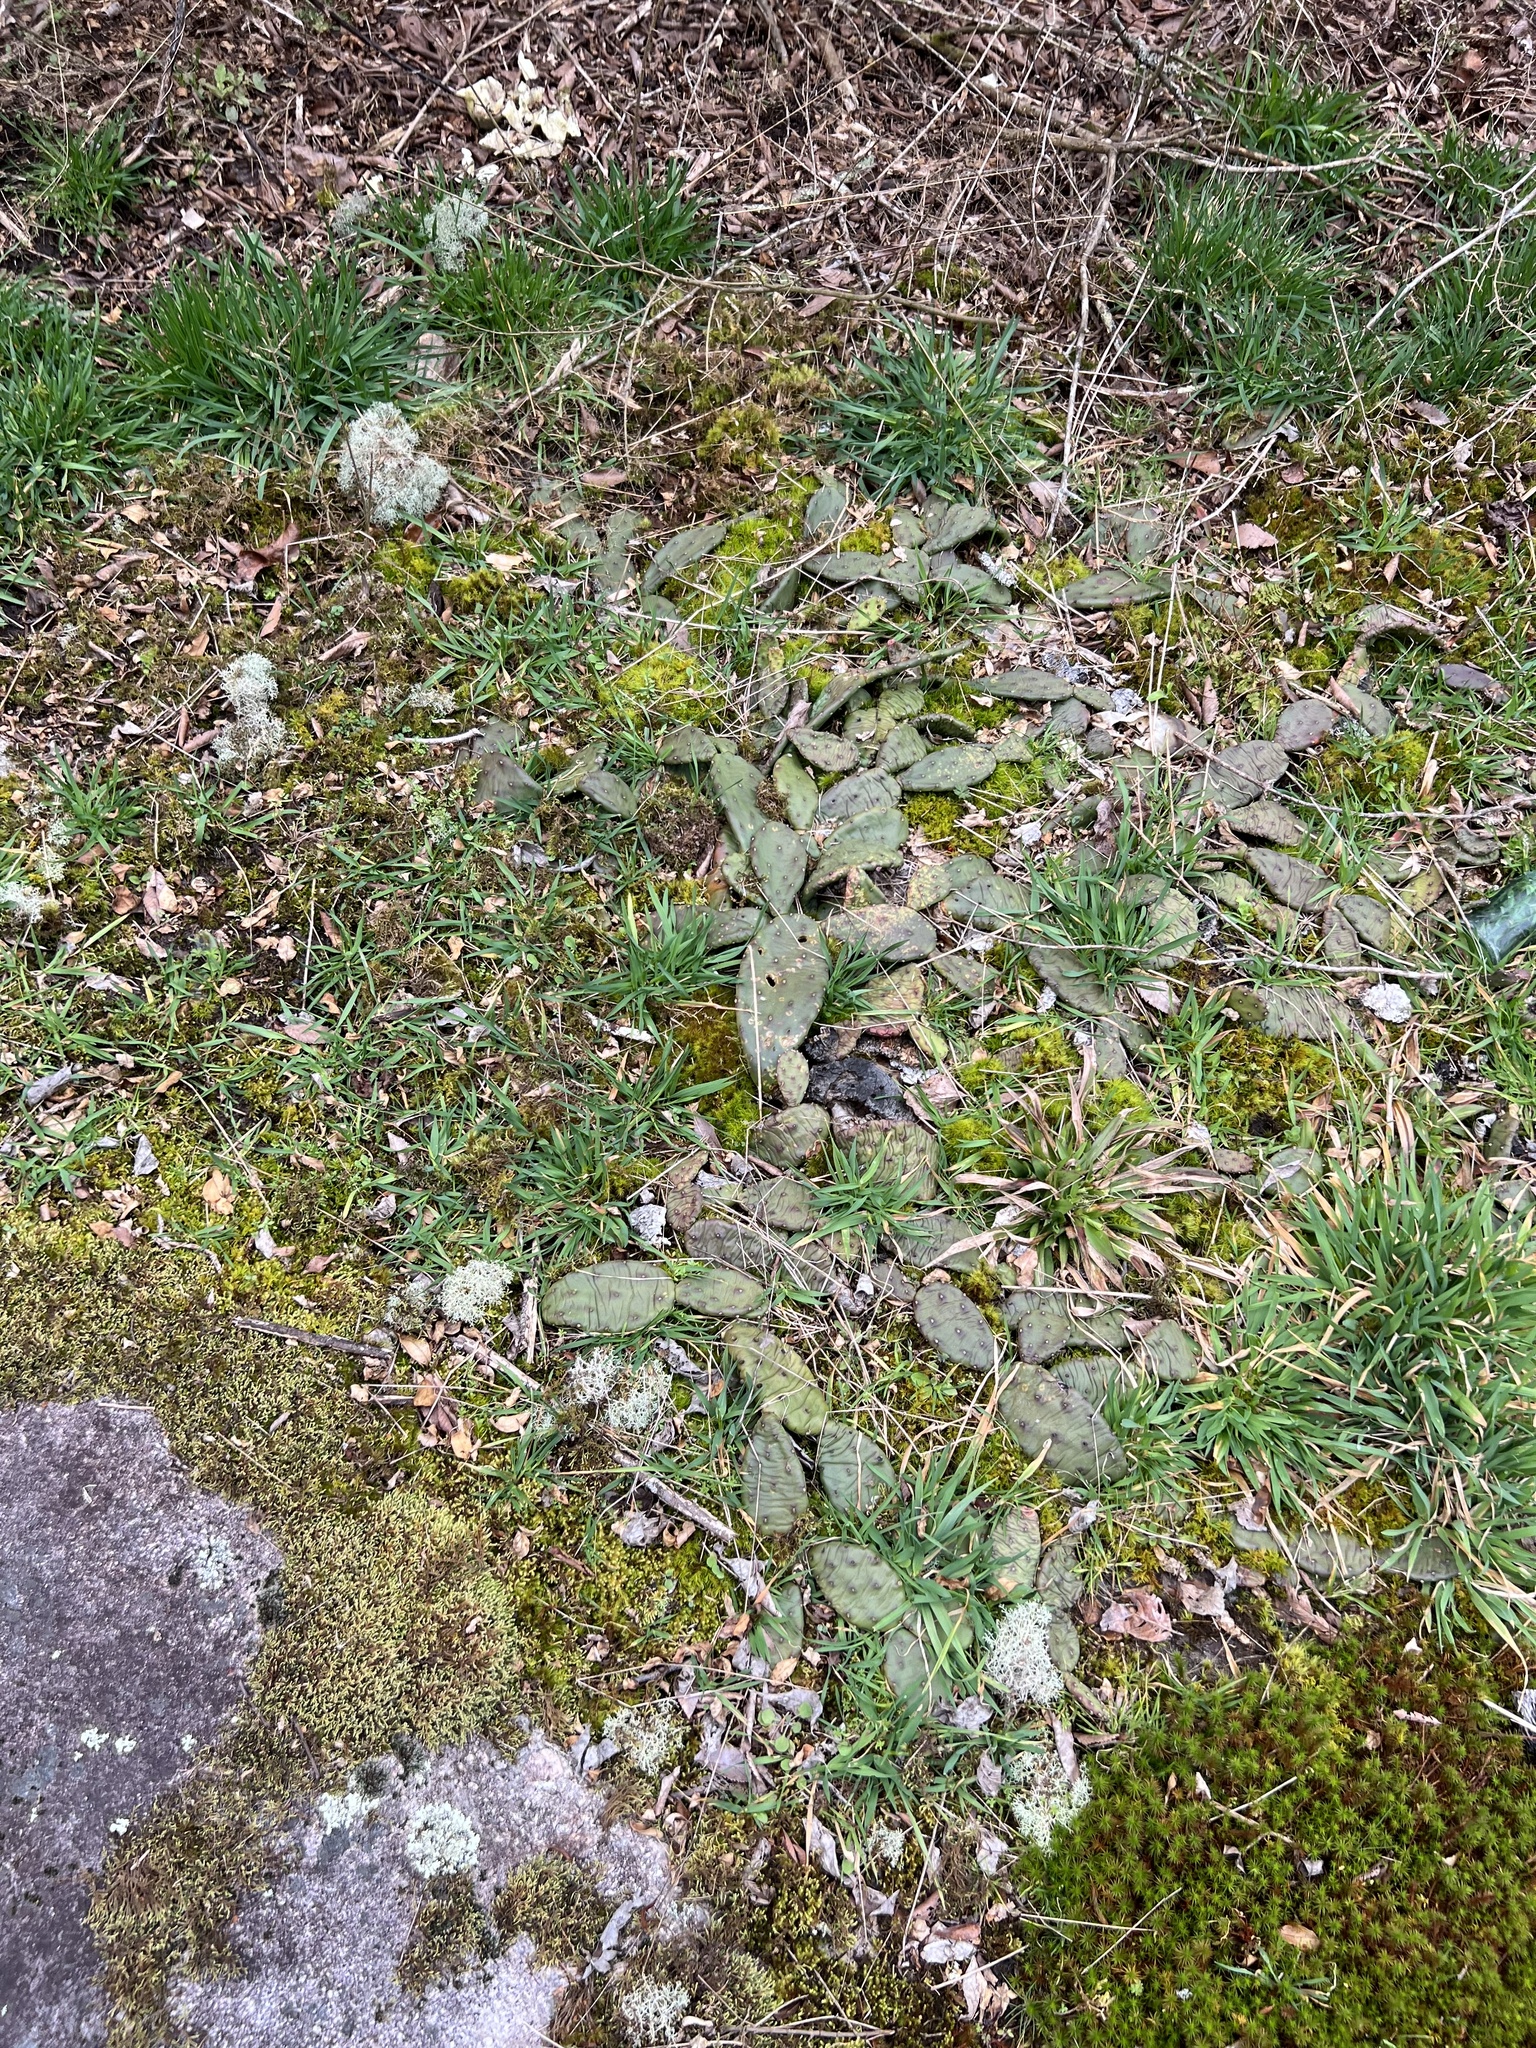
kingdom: Plantae
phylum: Tracheophyta
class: Magnoliopsida
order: Caryophyllales
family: Cactaceae
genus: Opuntia
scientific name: Opuntia mesacantha
